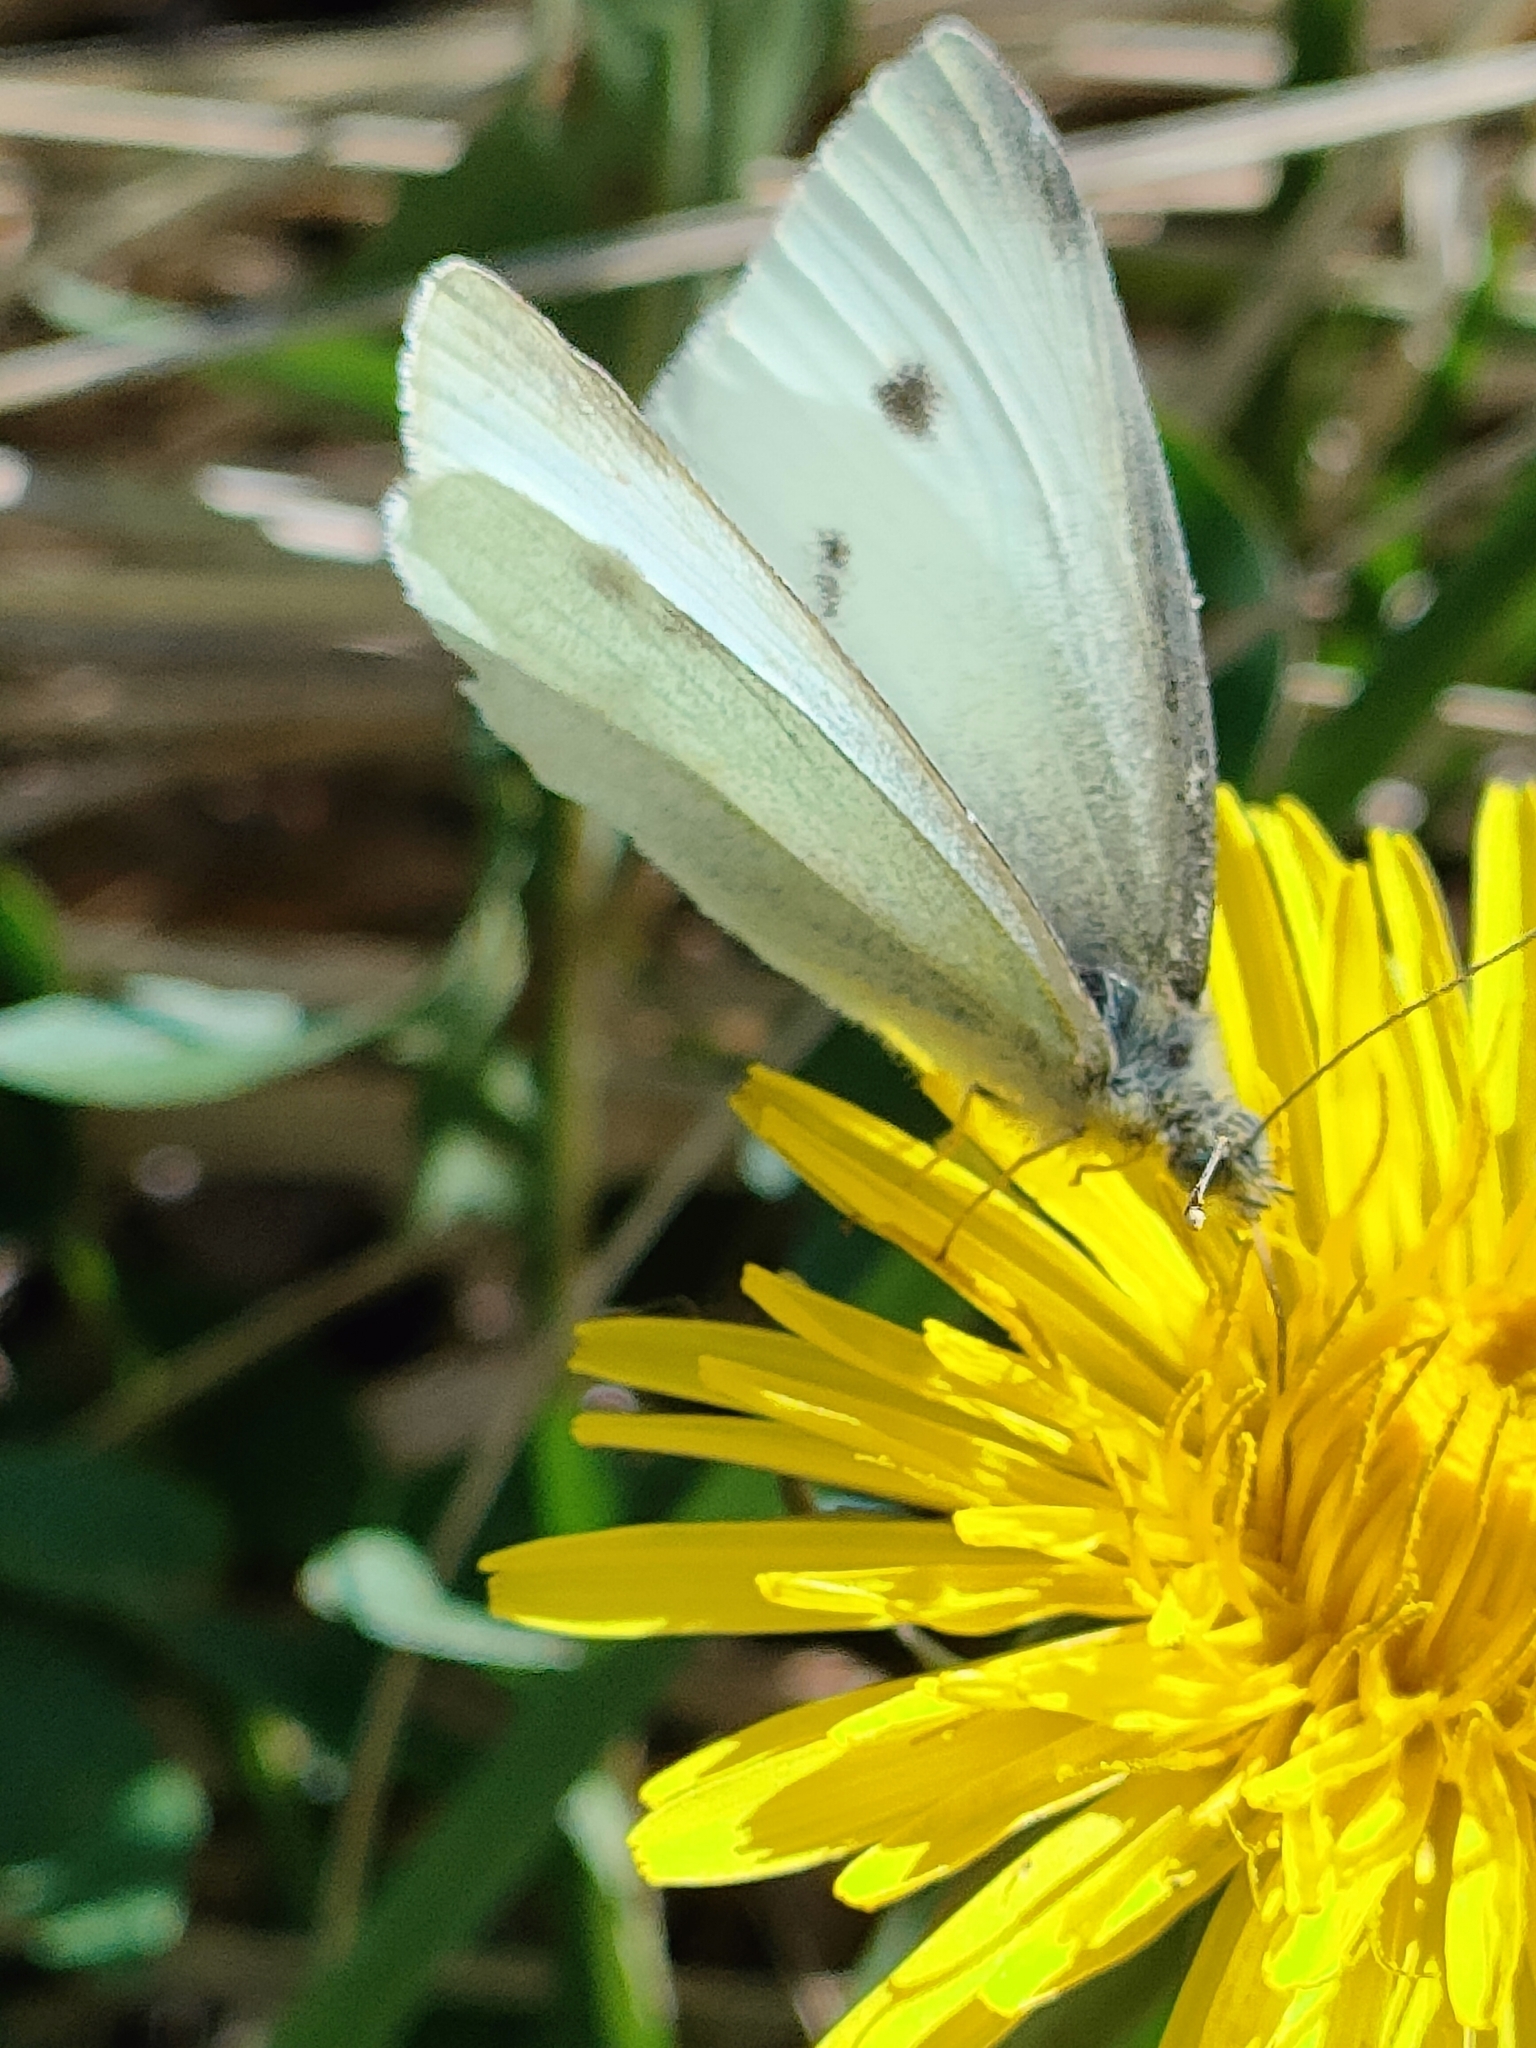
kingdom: Animalia
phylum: Arthropoda
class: Insecta
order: Lepidoptera
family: Pieridae
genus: Pieris
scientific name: Pieris rapae
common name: Small white
